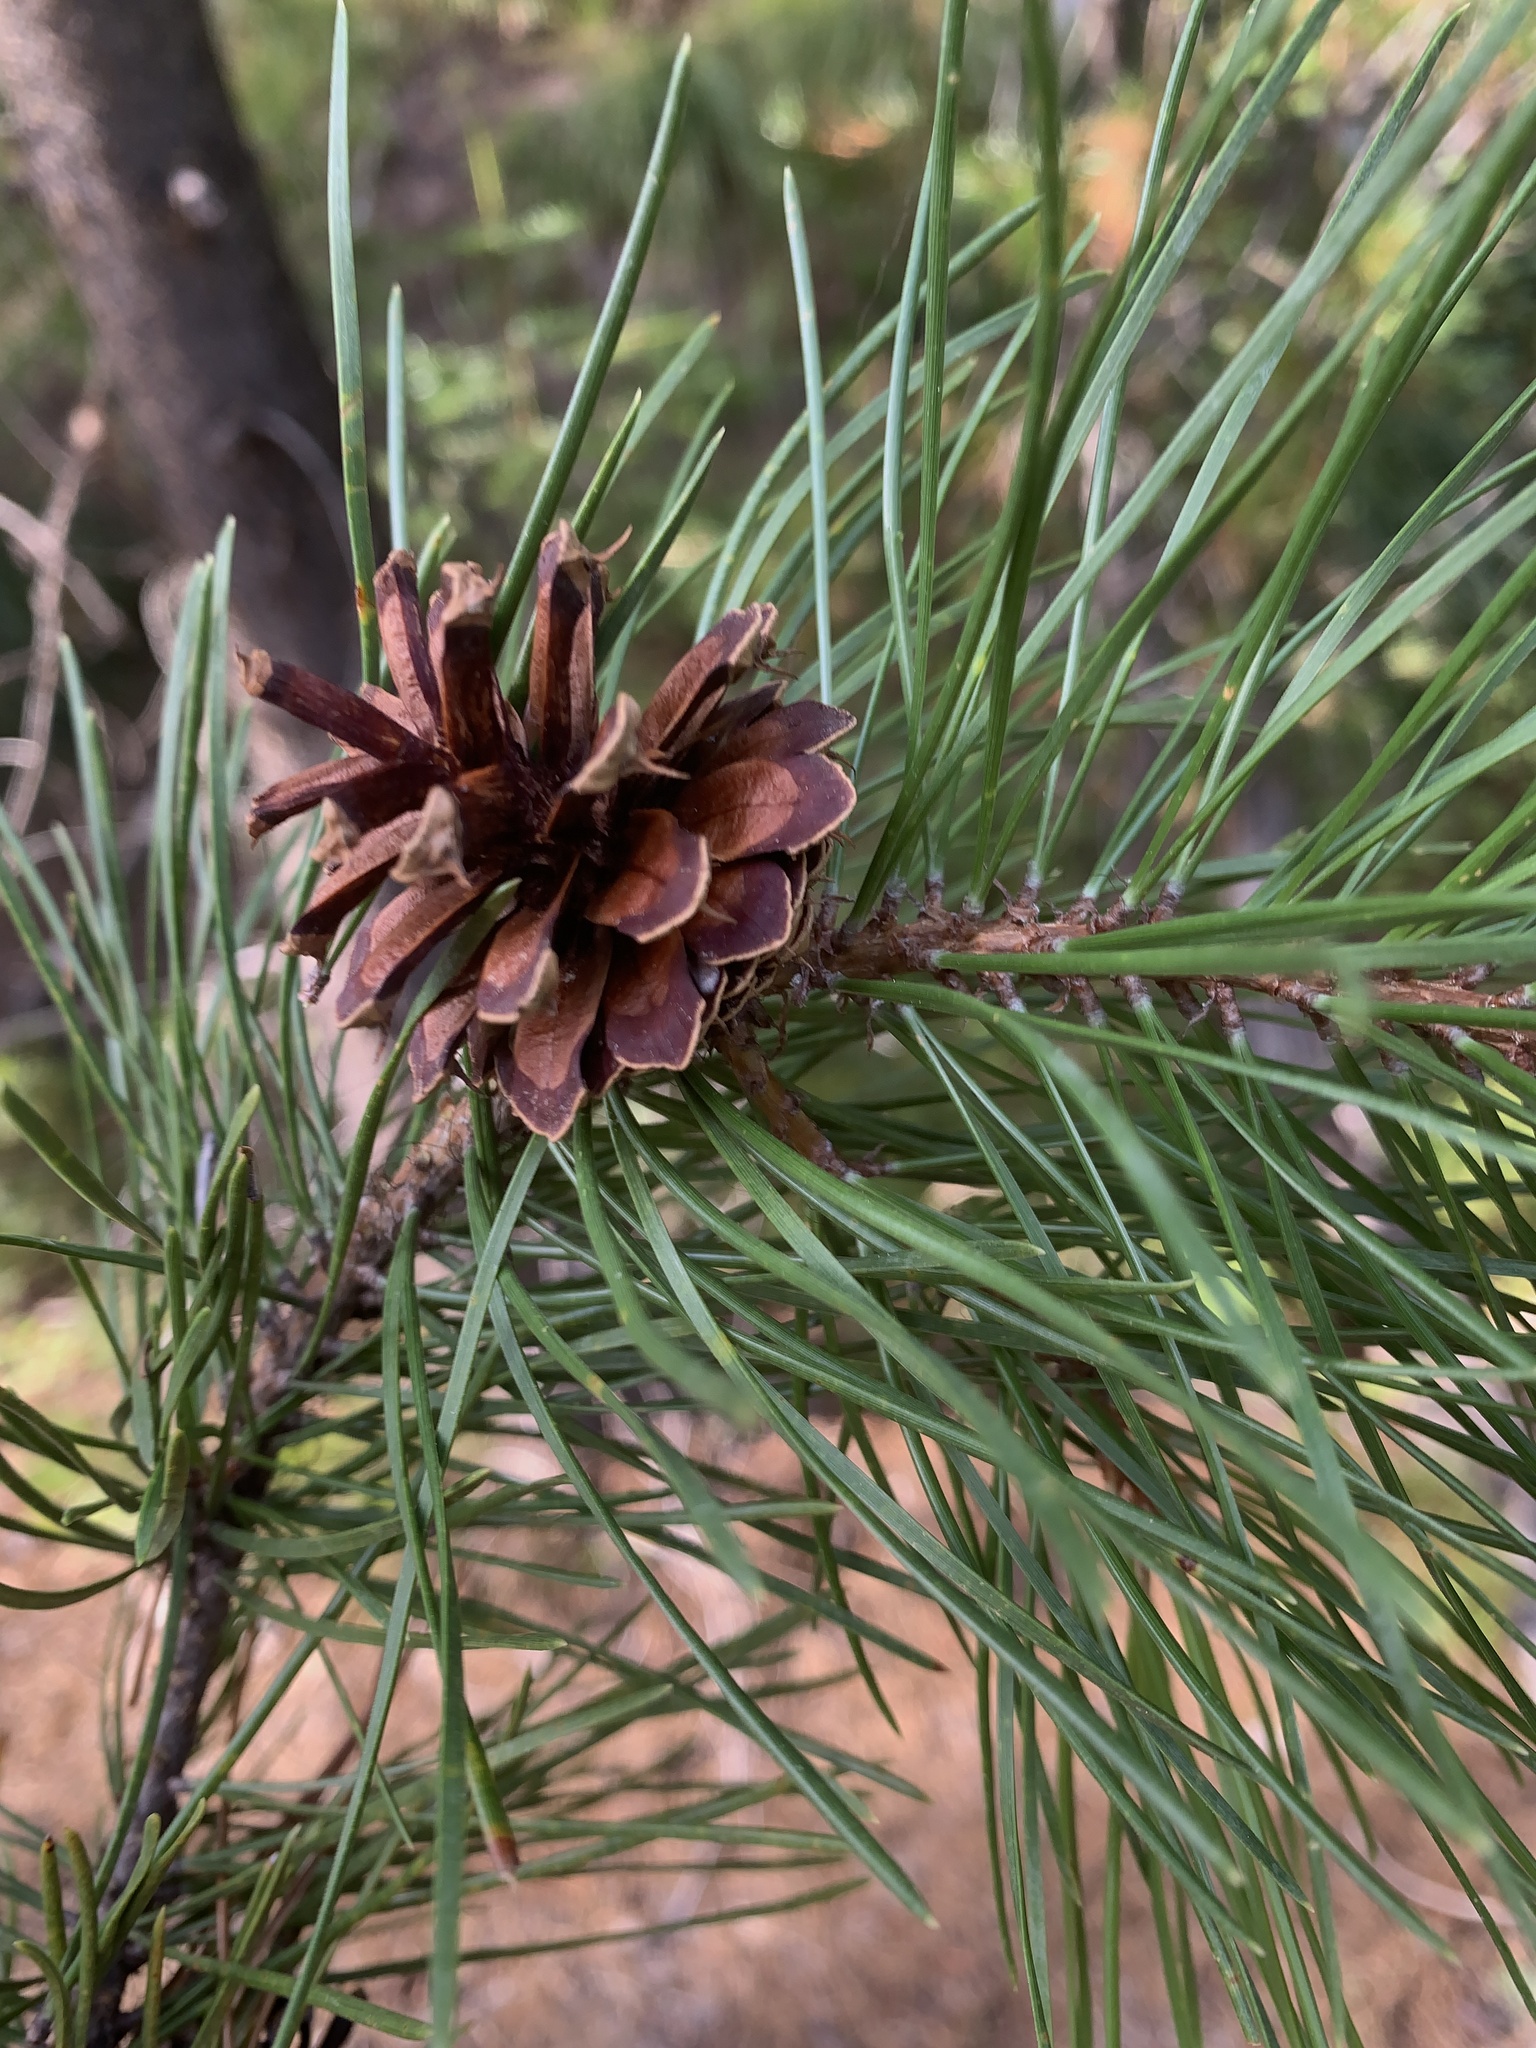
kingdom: Plantae
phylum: Tracheophyta
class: Pinopsida
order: Pinales
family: Pinaceae
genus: Pinus
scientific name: Pinus contorta
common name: Lodgepole pine
